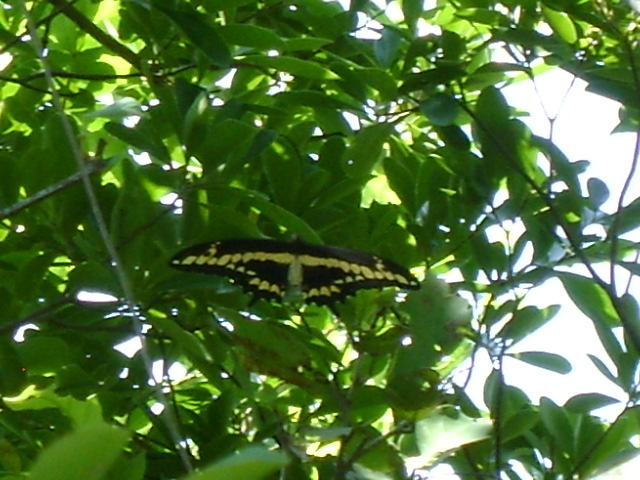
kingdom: Animalia
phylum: Arthropoda
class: Insecta
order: Lepidoptera
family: Papilionidae
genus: Papilio
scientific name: Papilio rumiko
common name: Western giant swallowtail
